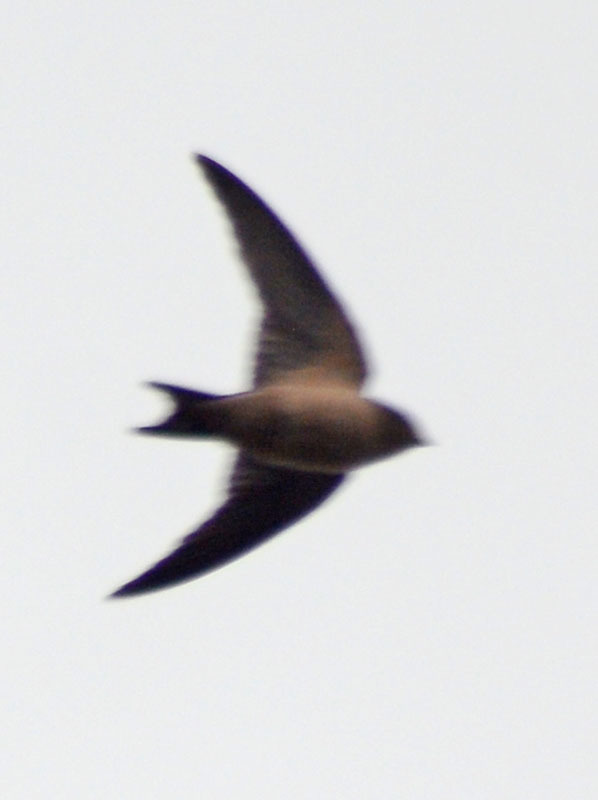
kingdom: Animalia
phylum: Chordata
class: Aves
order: Passeriformes
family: Hirundinidae
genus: Hirundo
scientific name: Hirundo rustica
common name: Barn swallow
